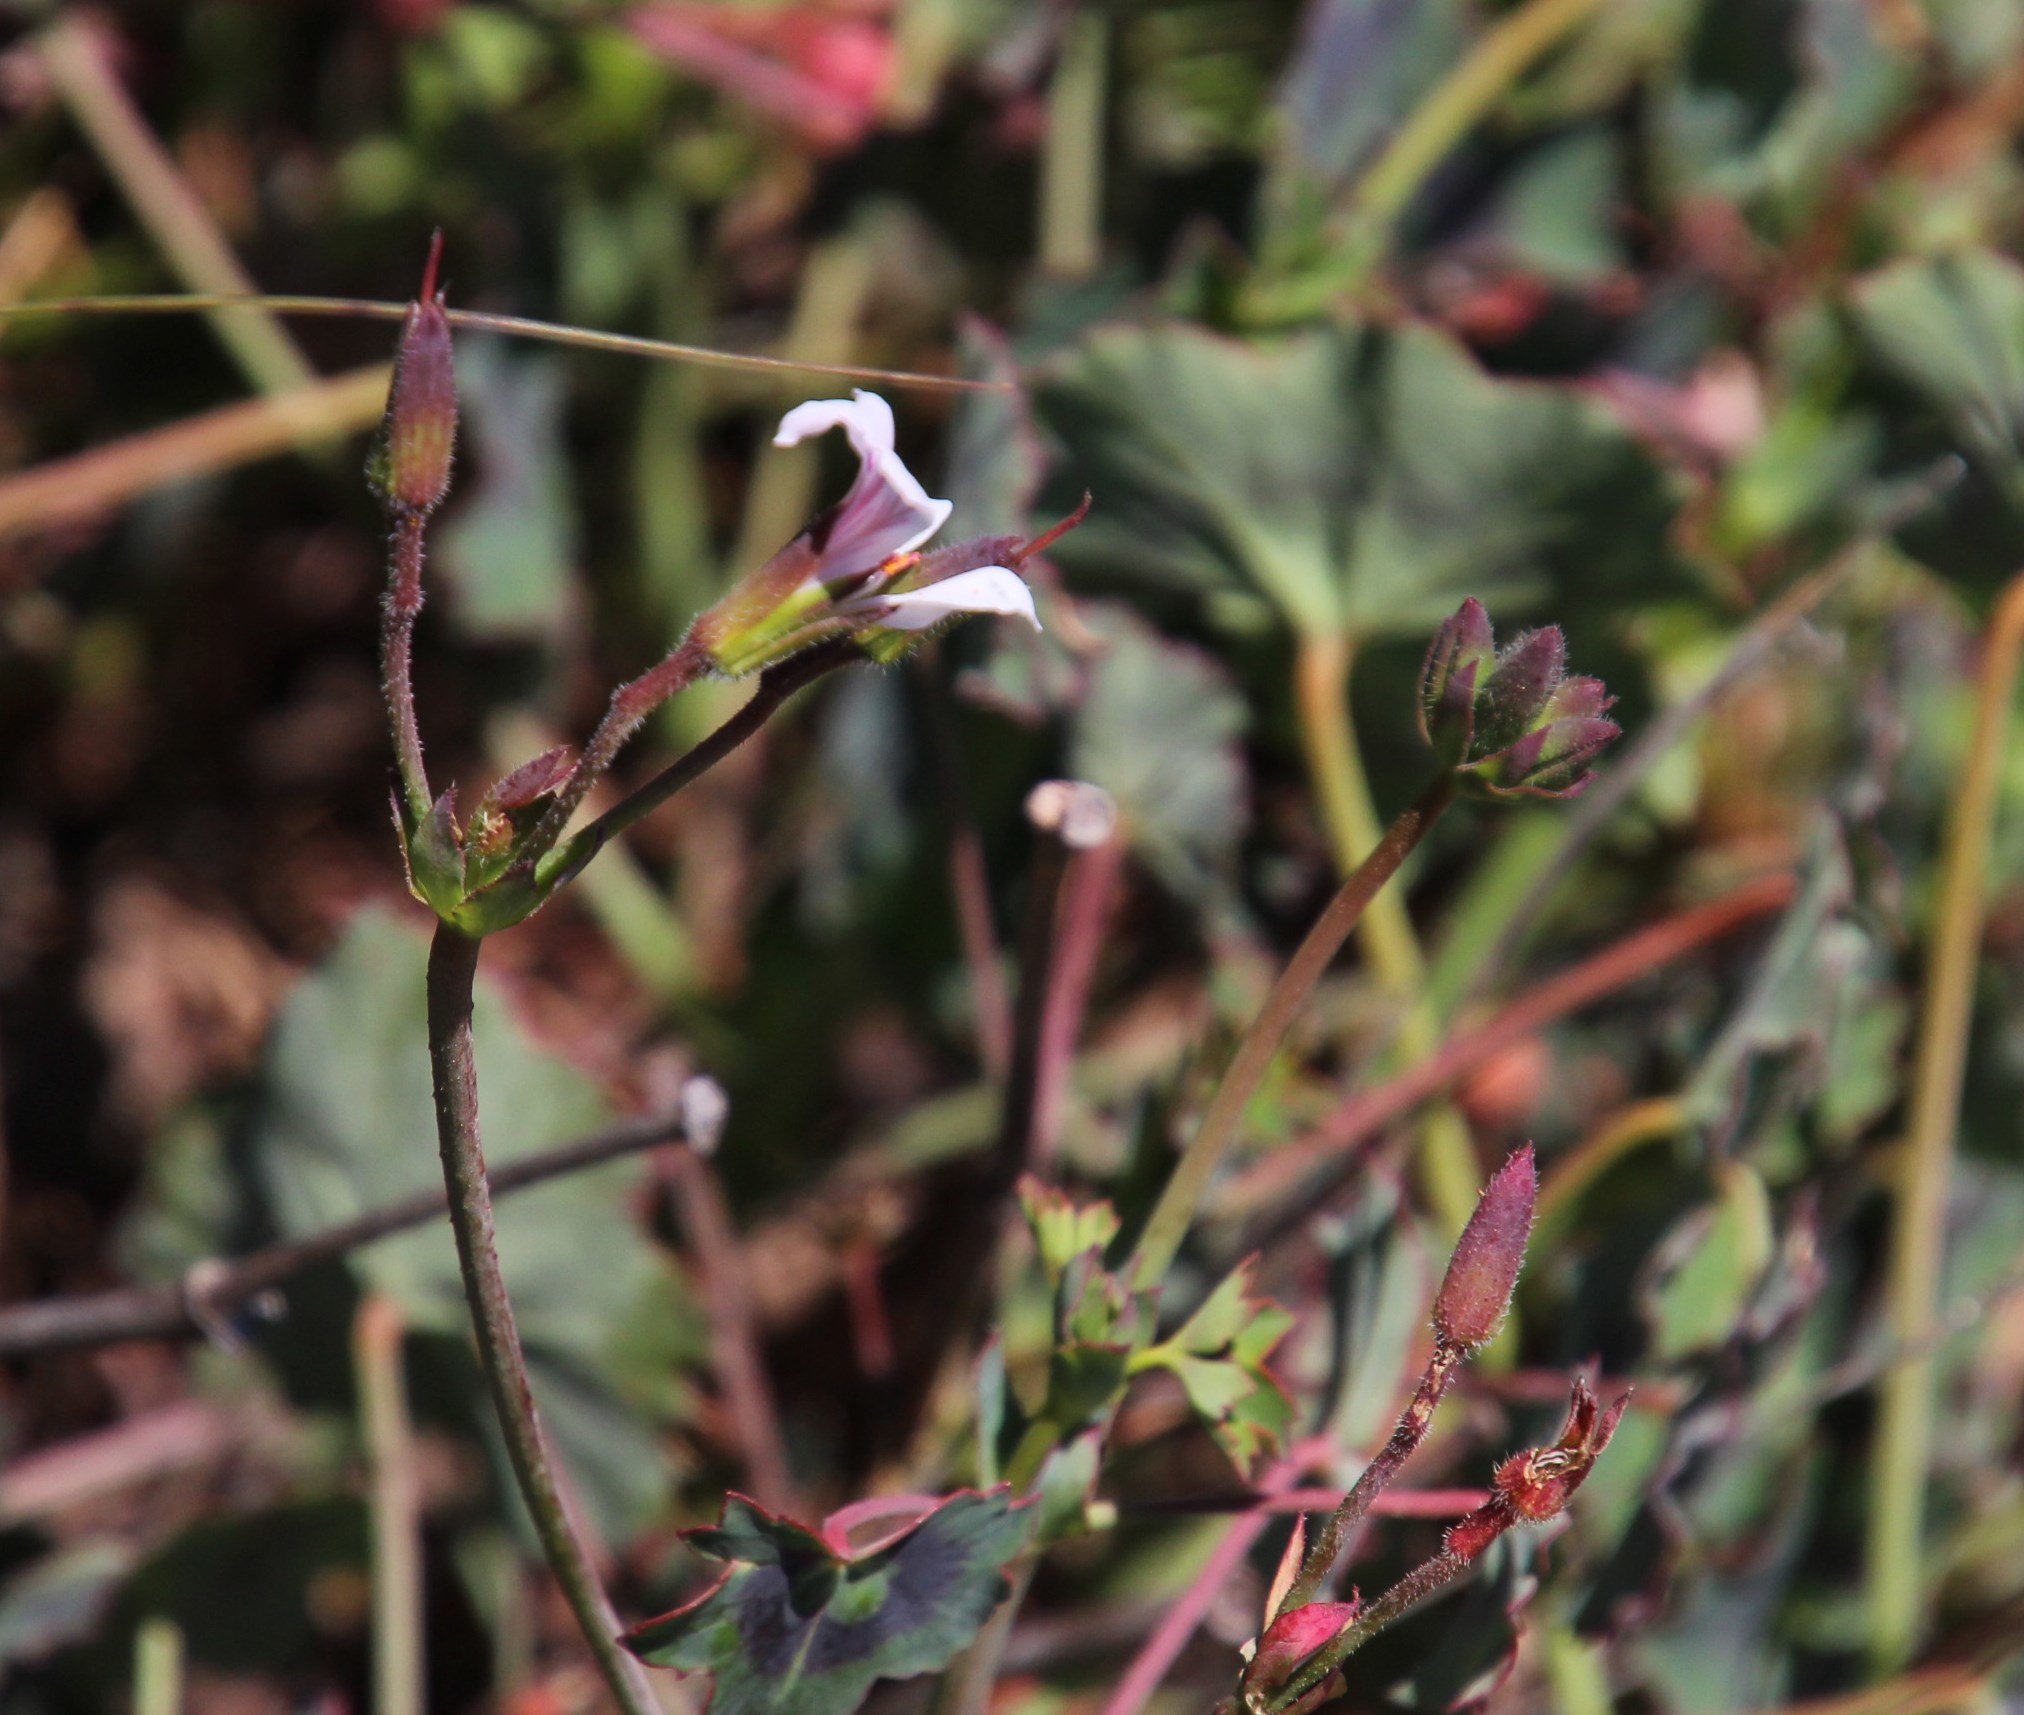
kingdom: Plantae
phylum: Tracheophyta
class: Magnoliopsida
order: Geraniales
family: Geraniaceae
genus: Pelargonium
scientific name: Pelargonium tabulare
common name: Table mountain pelargonium
